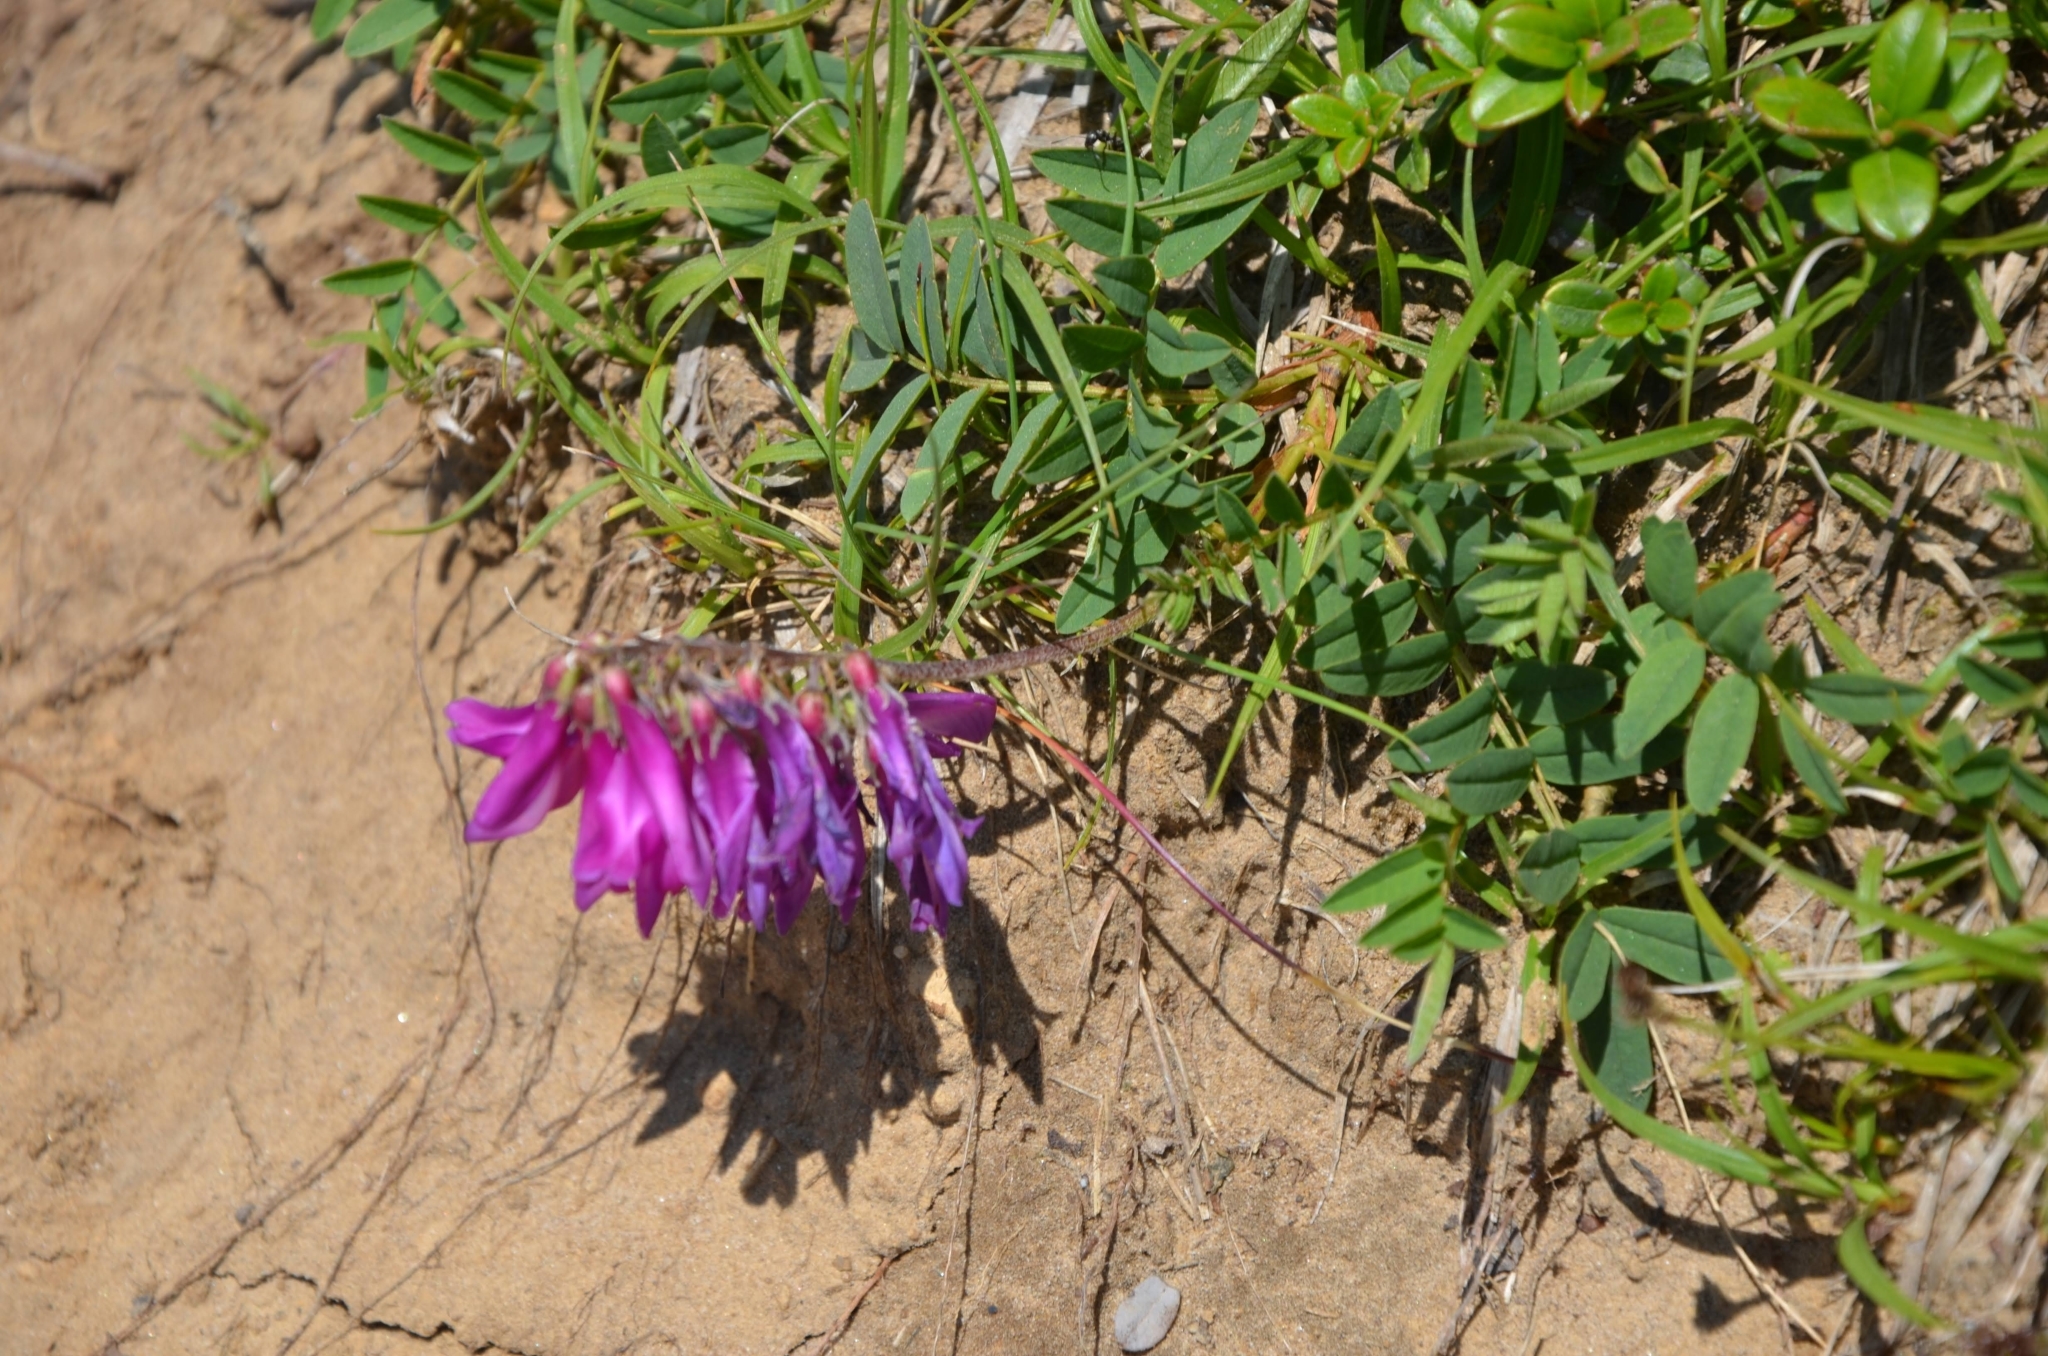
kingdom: Plantae
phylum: Tracheophyta
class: Magnoliopsida
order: Fabales
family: Fabaceae
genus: Hedysarum
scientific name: Hedysarum hedysaroides
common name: Alpine french-honeysuckle
